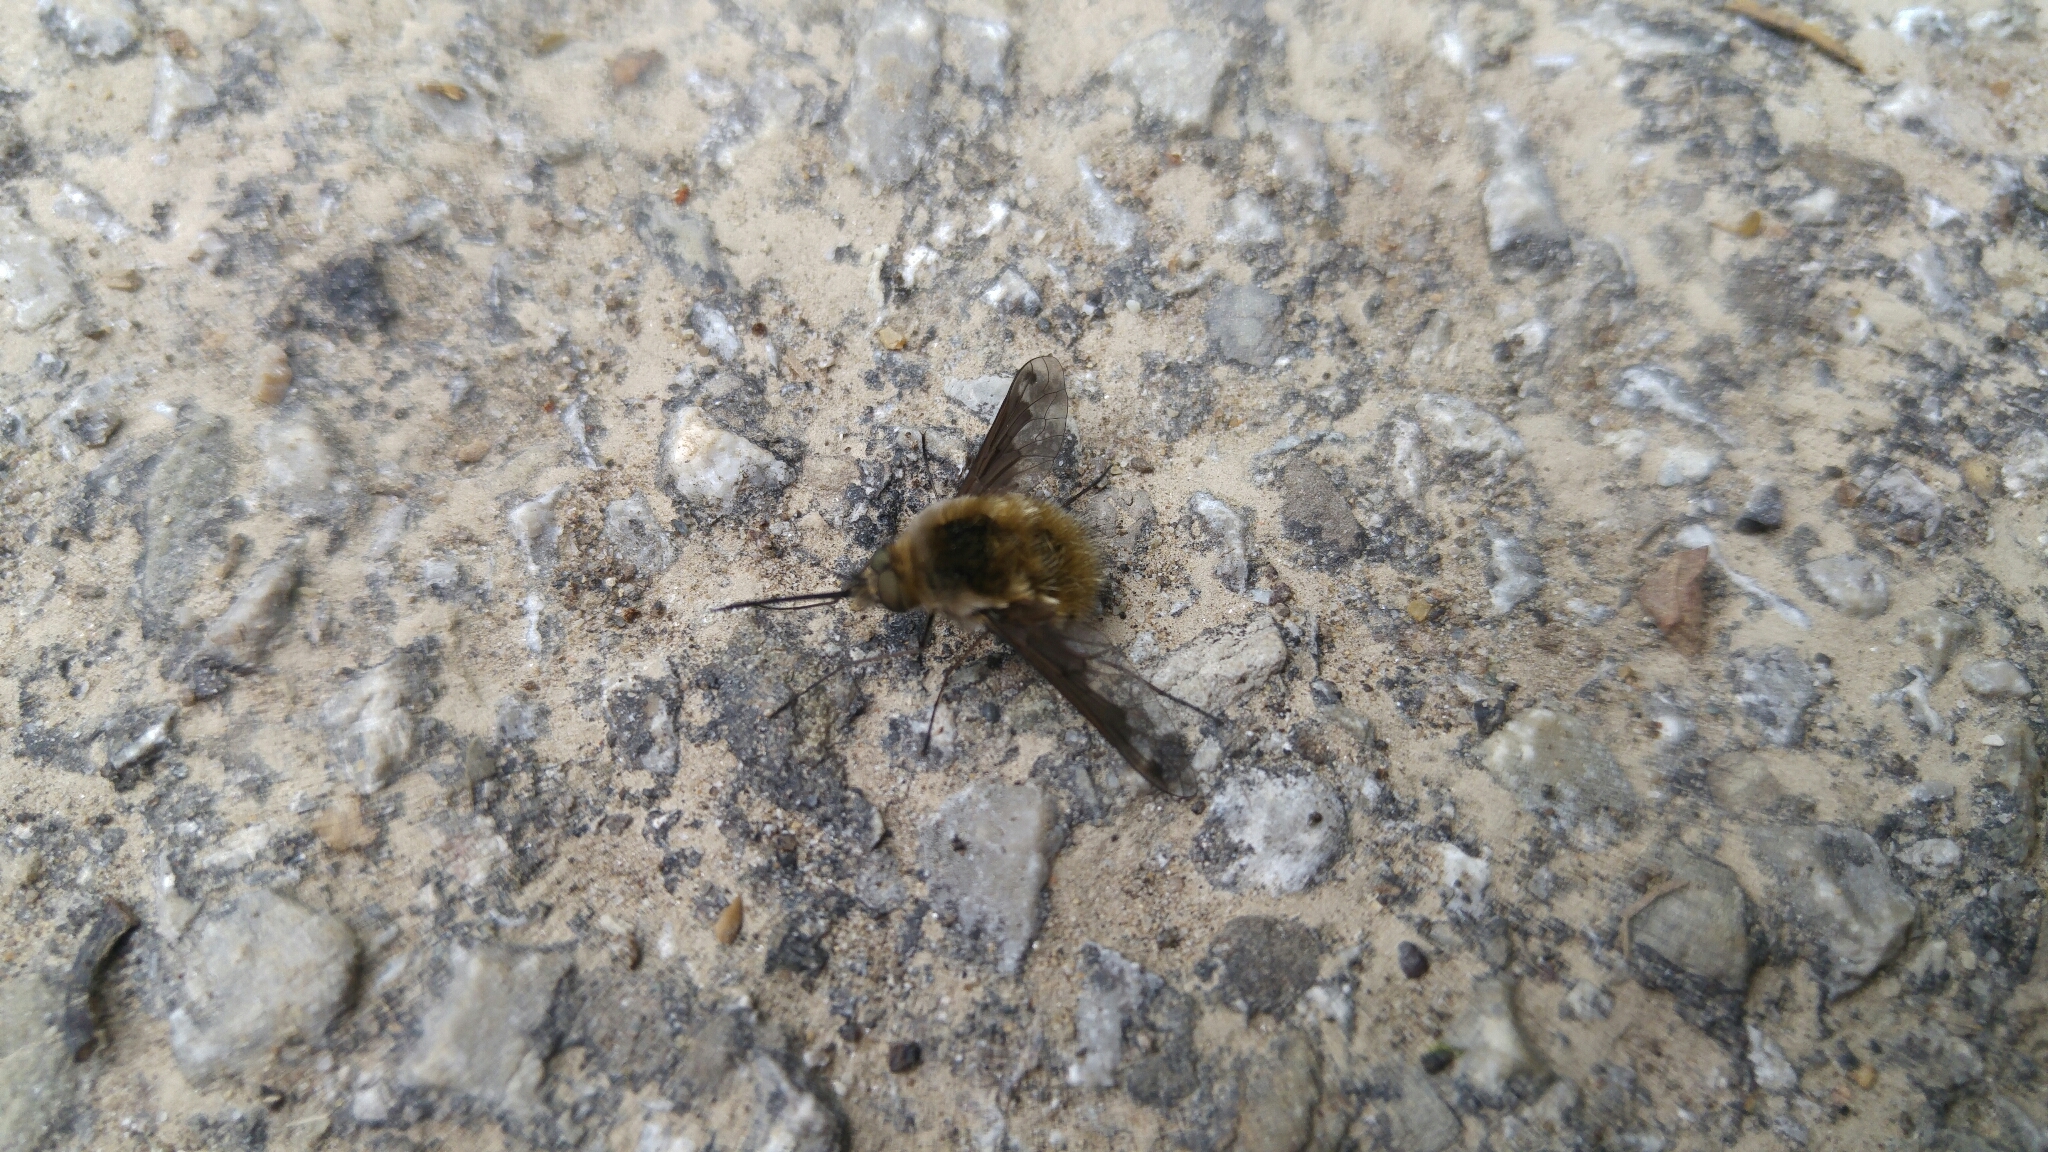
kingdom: Animalia
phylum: Arthropoda
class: Insecta
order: Diptera
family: Bombyliidae
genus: Bombylius
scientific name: Bombylius fimbriatus
